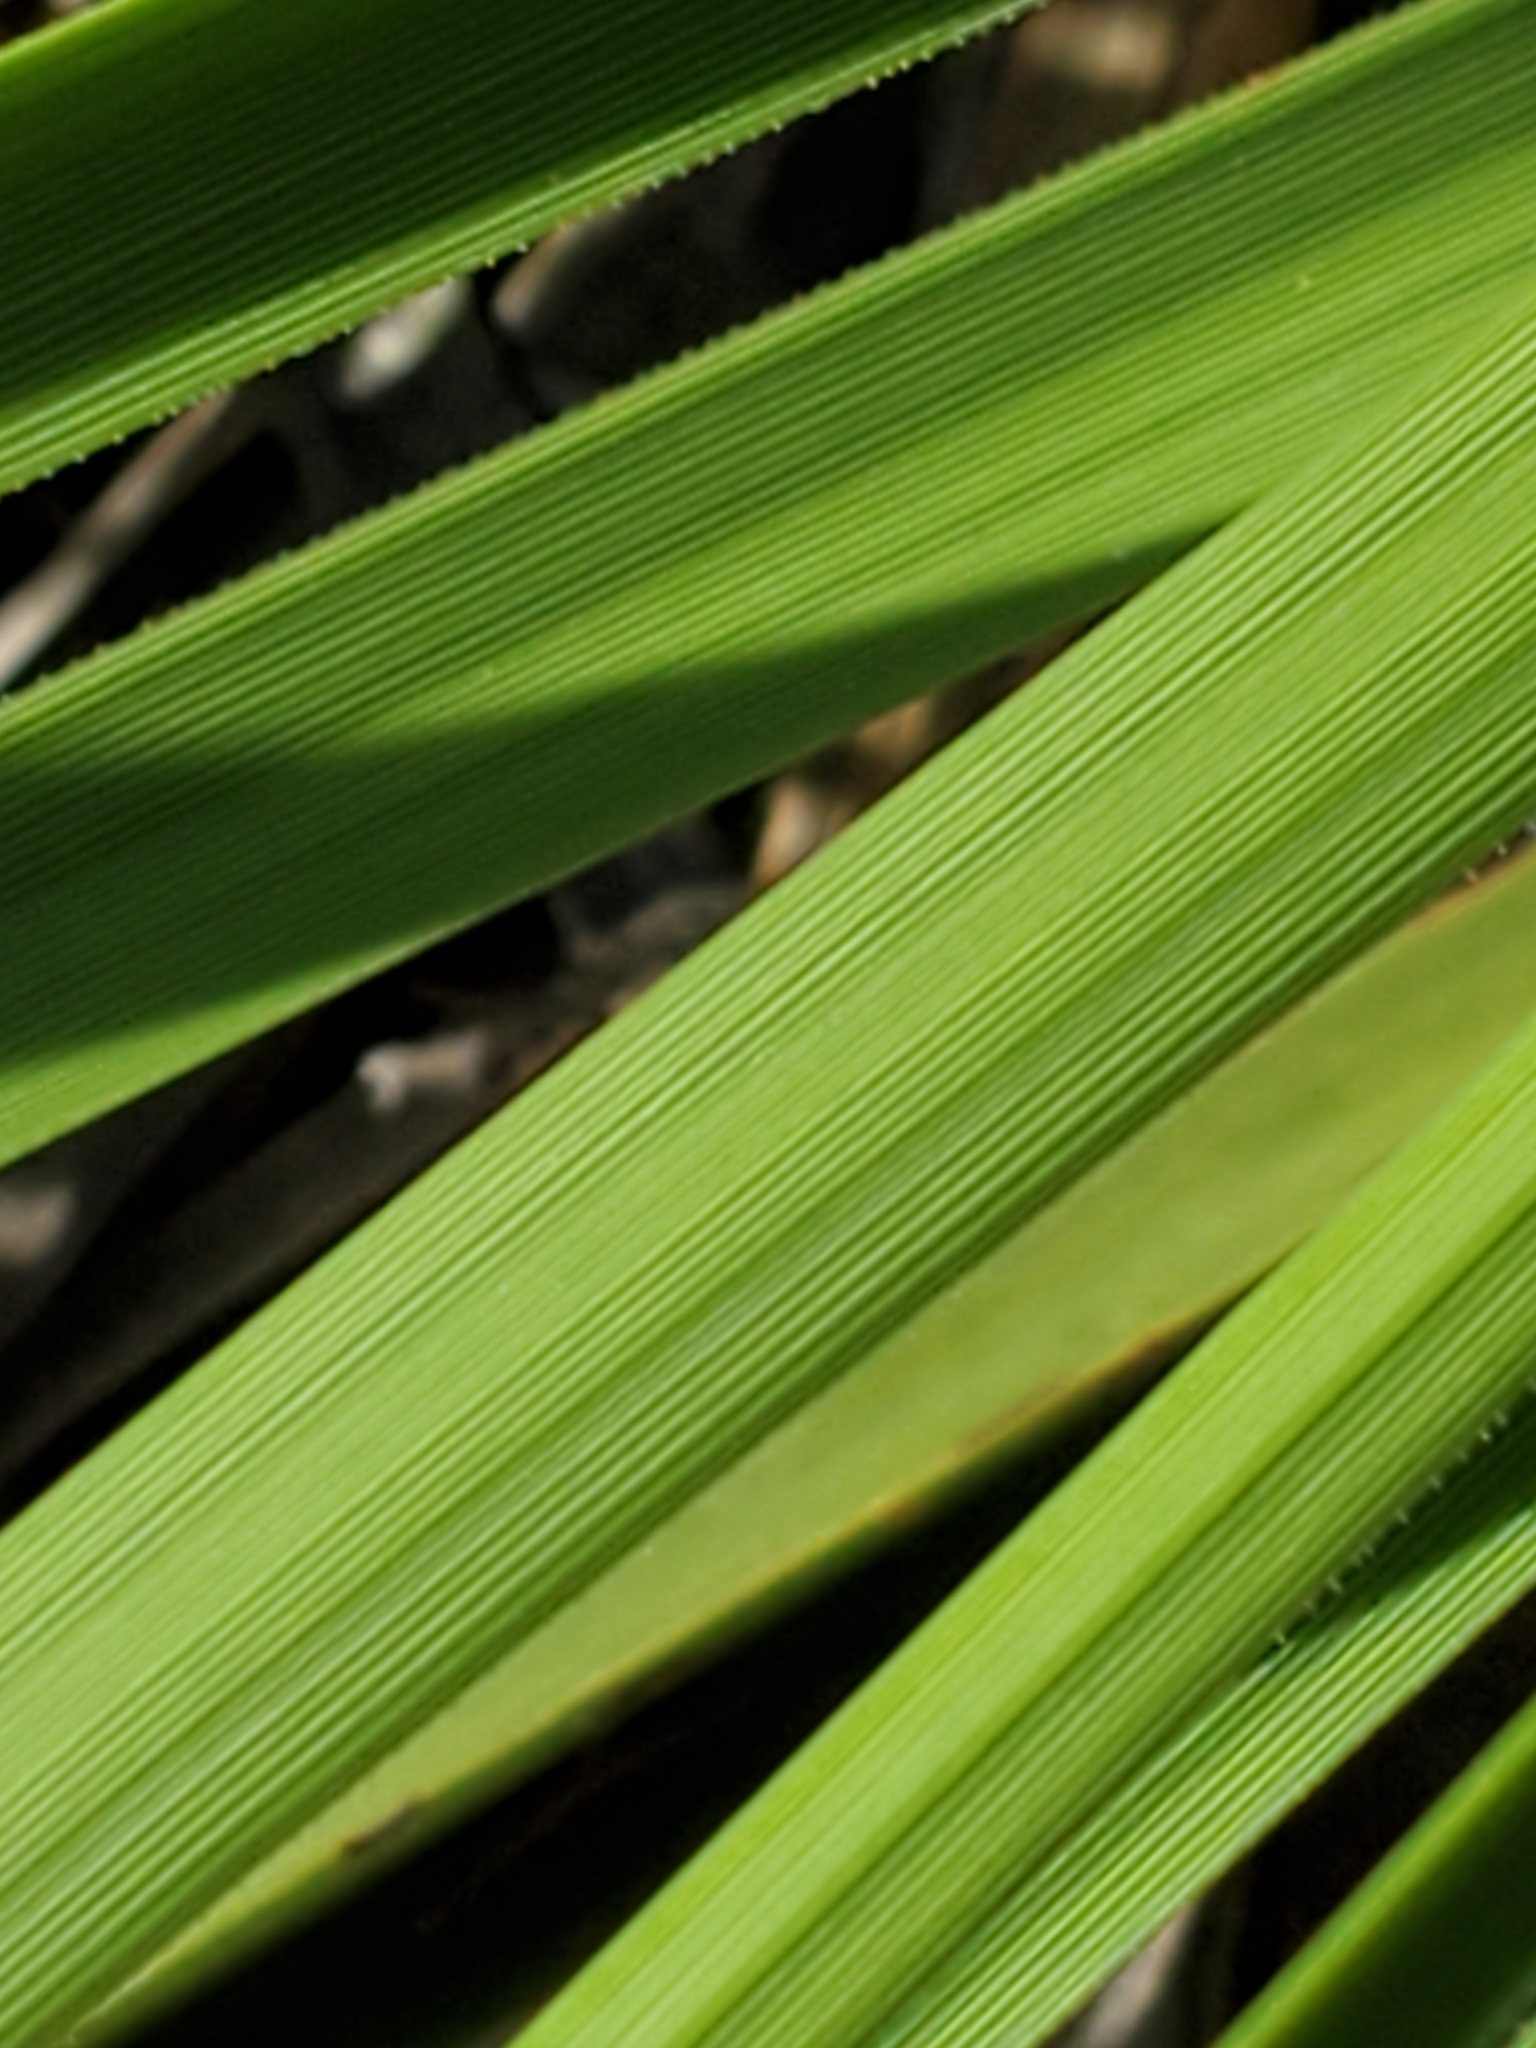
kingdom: Plantae
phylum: Tracheophyta
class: Liliopsida
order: Asparagales
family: Asparagaceae
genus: Nolina
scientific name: Nolina lindheimeriana
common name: Lindheimer's bear-grass
